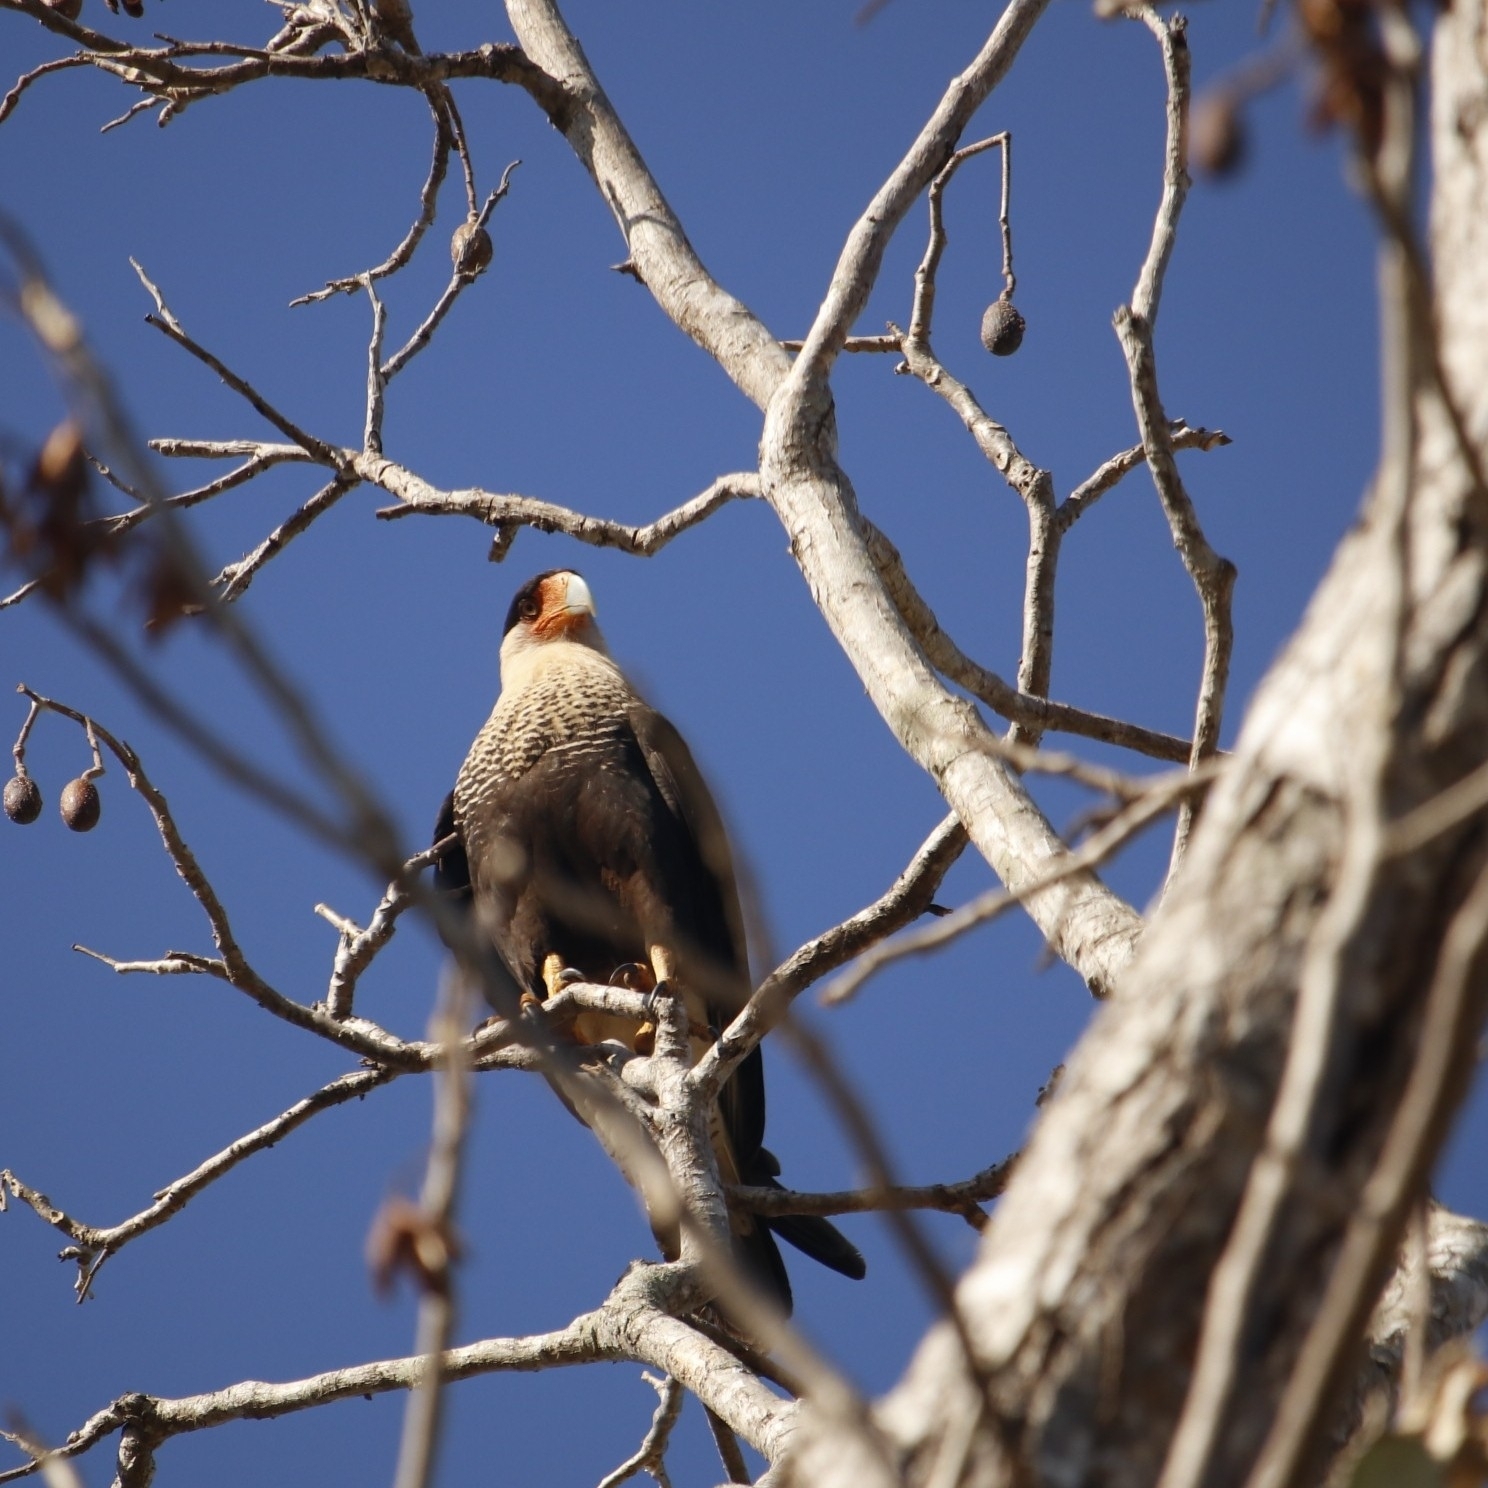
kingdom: Animalia
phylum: Chordata
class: Aves
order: Falconiformes
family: Falconidae
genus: Caracara
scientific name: Caracara plancus
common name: Southern caracara
